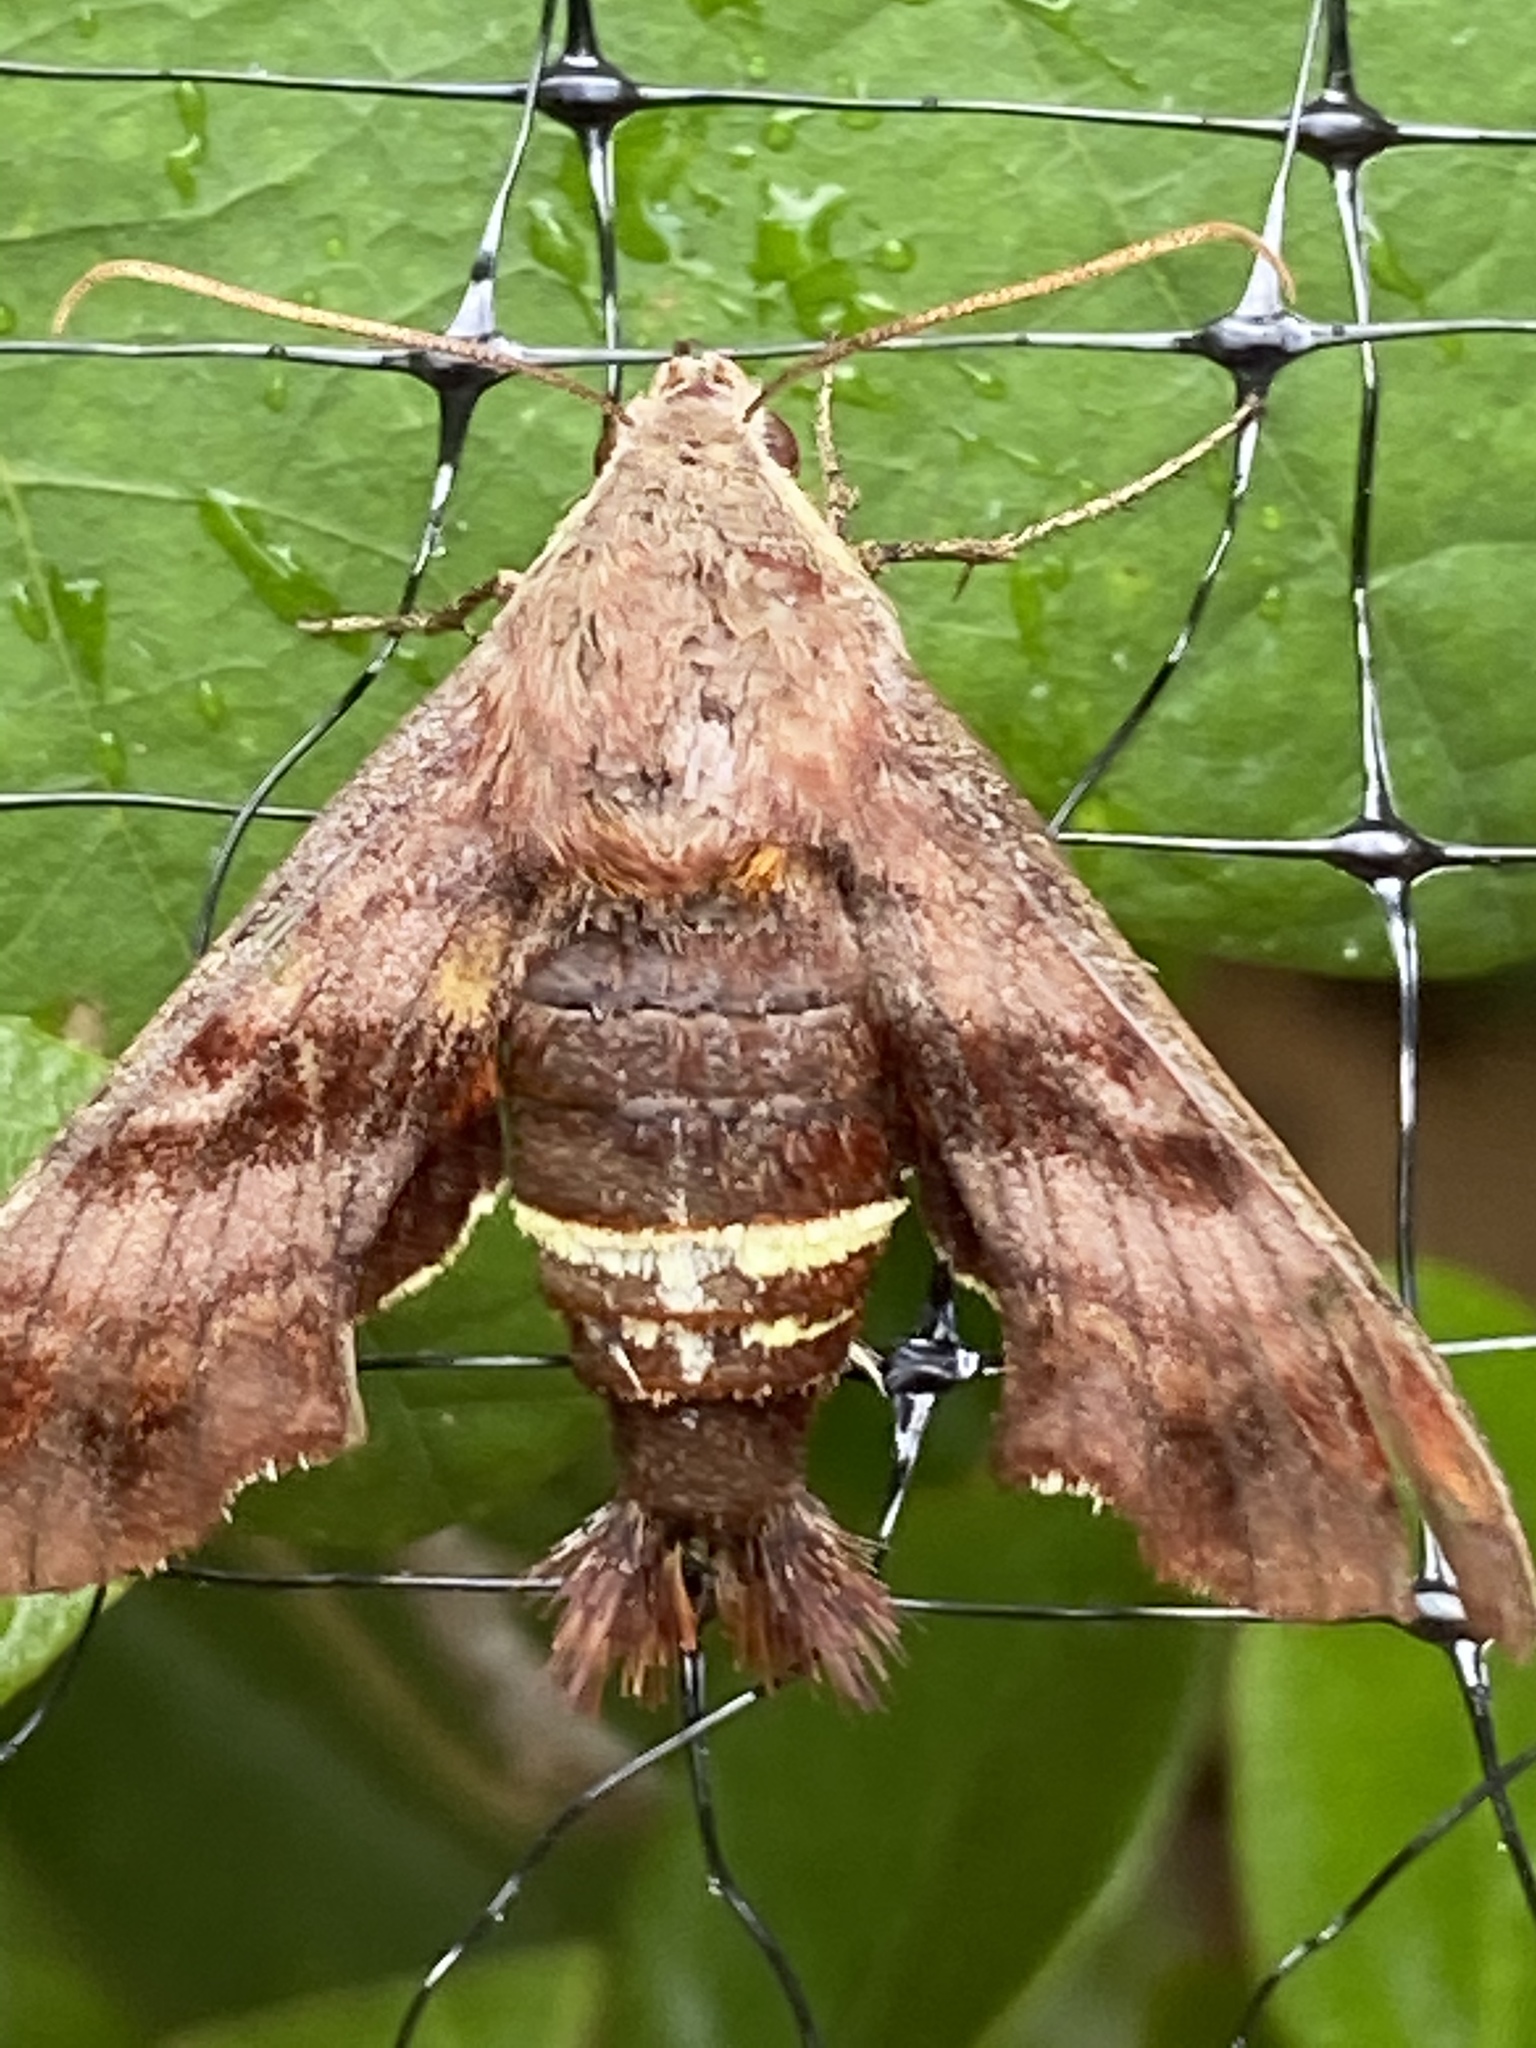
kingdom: Animalia
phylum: Arthropoda
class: Insecta
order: Lepidoptera
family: Sphingidae
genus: Amphion
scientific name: Amphion floridensis
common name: Nessus sphinx
